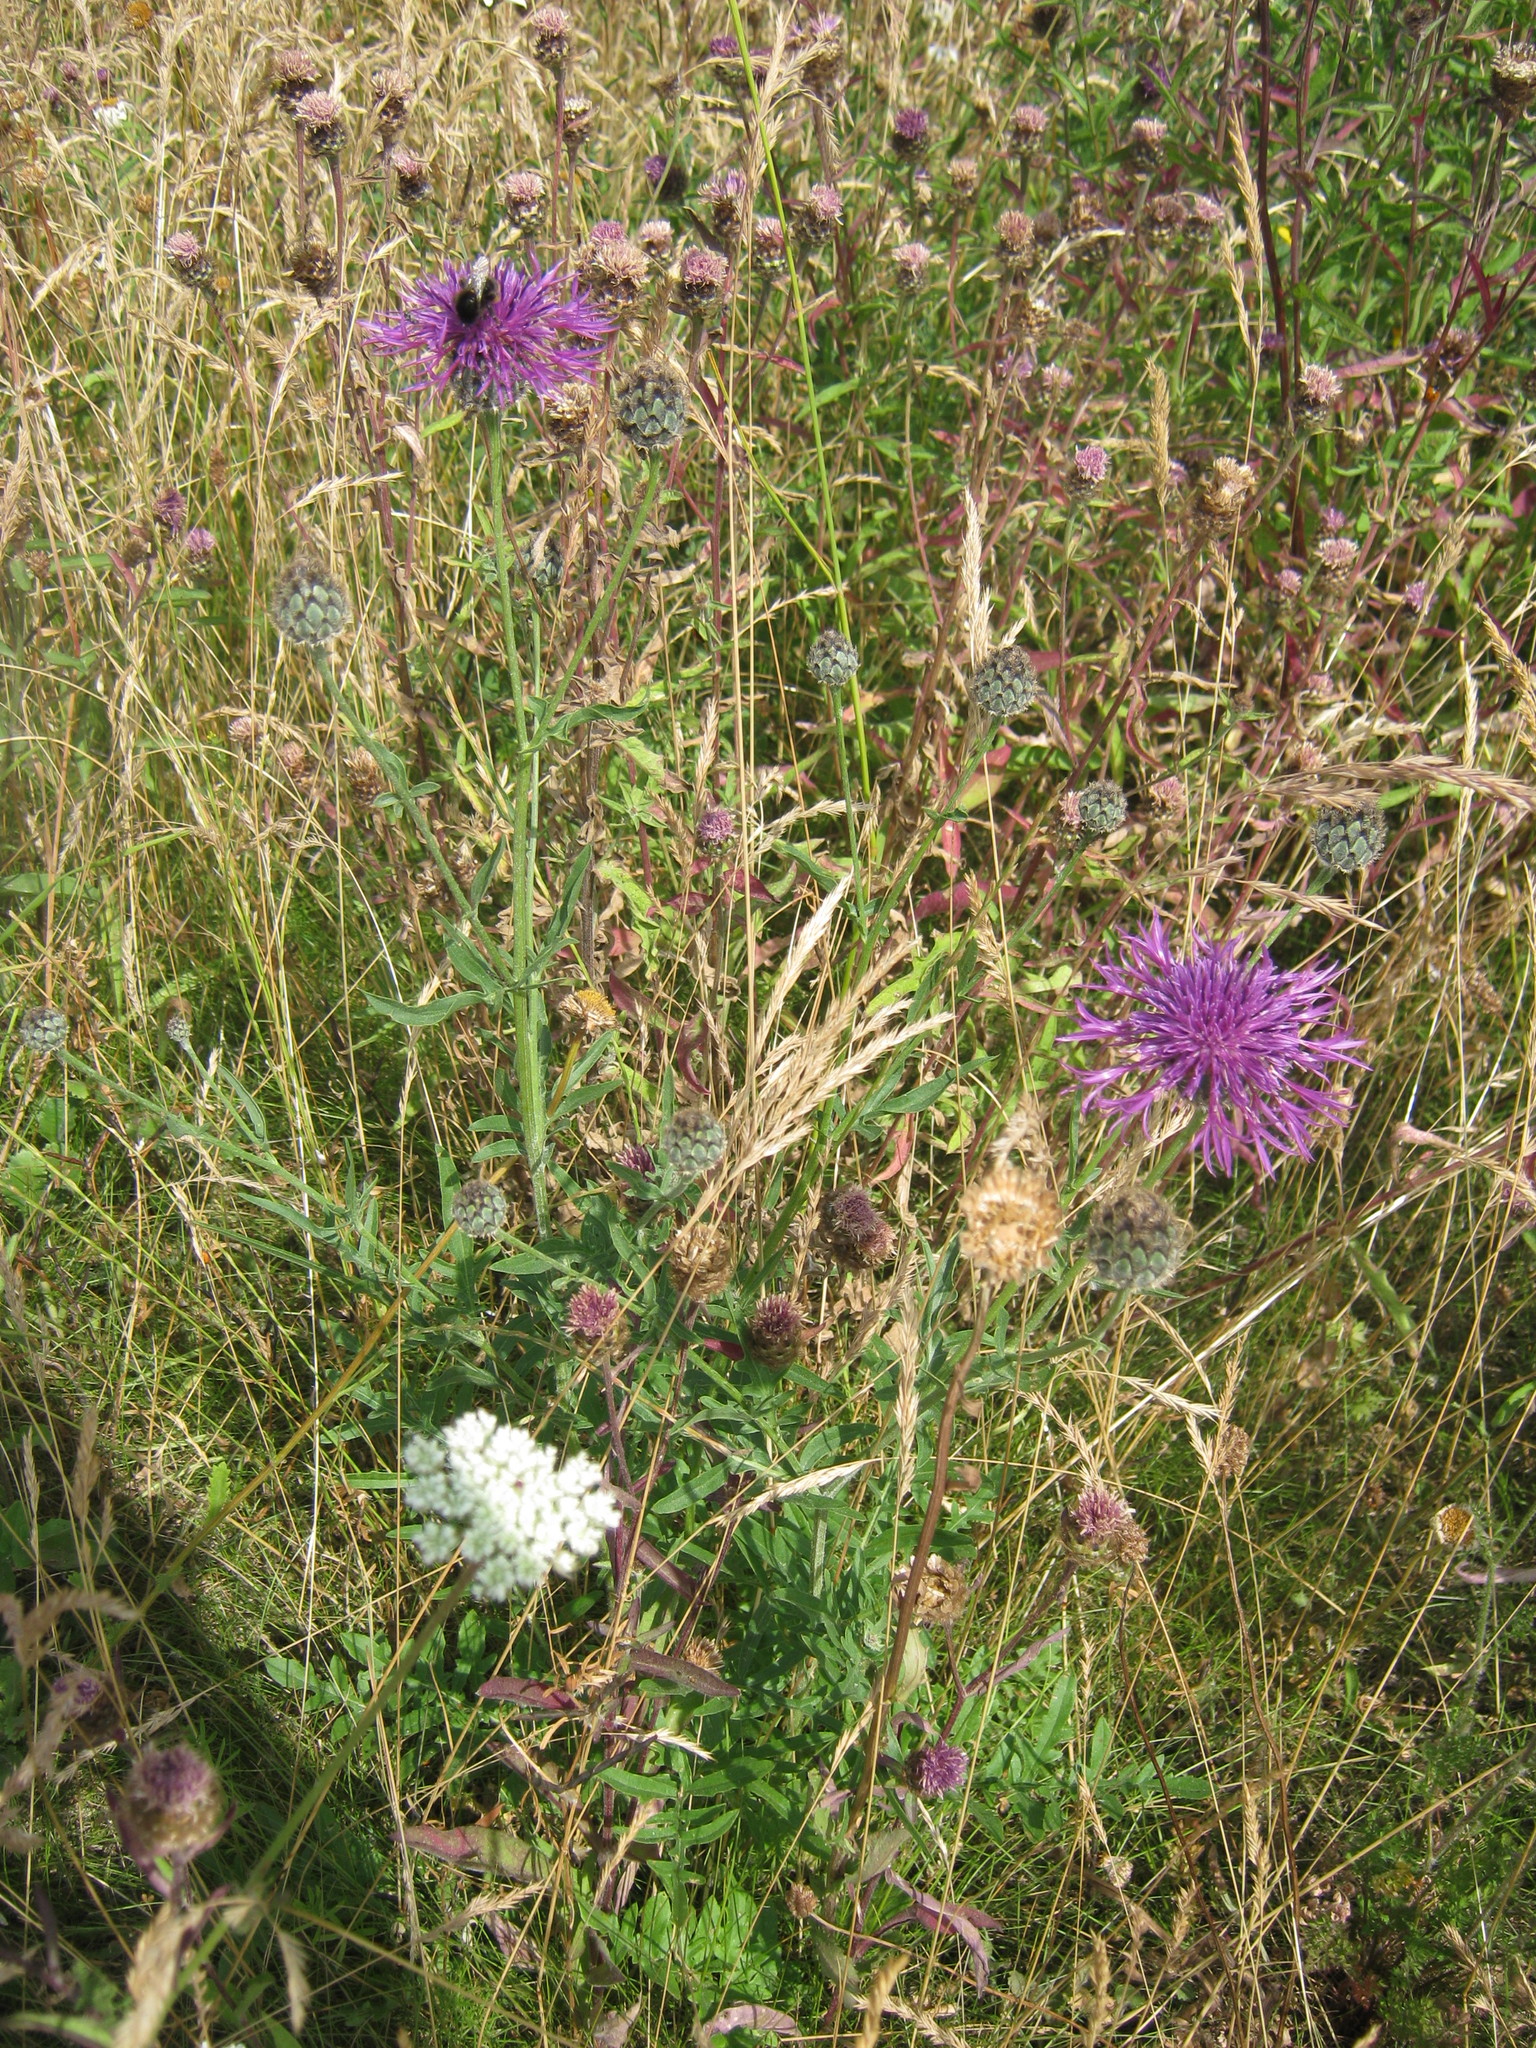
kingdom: Plantae
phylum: Tracheophyta
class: Magnoliopsida
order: Asterales
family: Asteraceae
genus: Centaurea
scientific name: Centaurea scabiosa
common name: Greater knapweed
